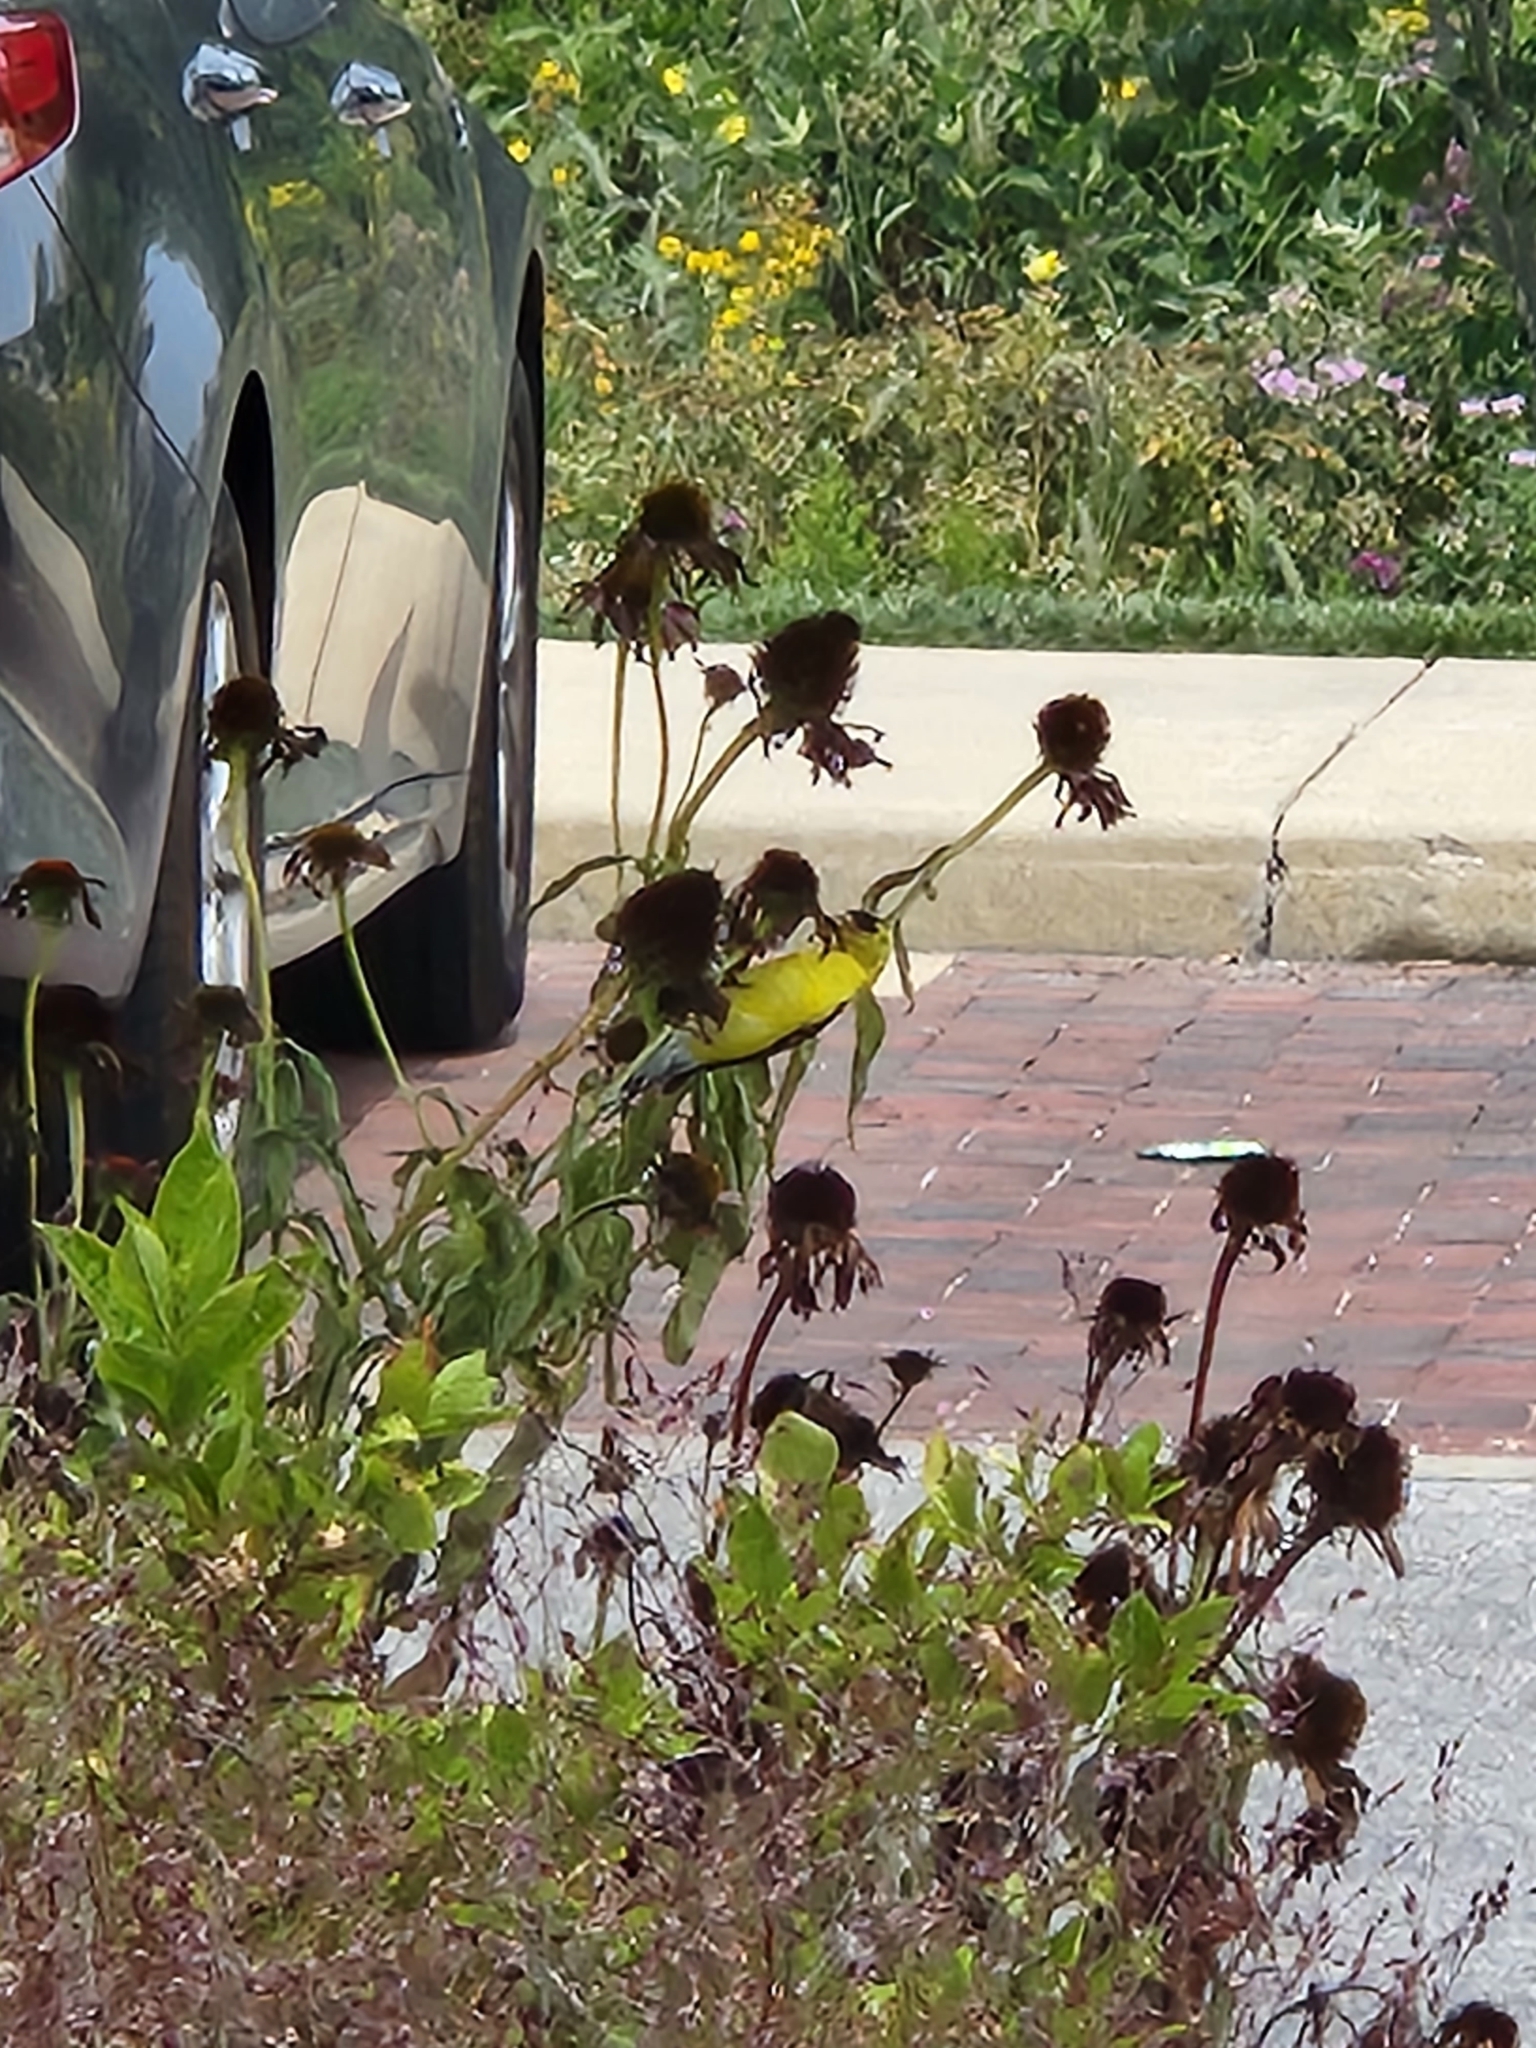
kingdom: Animalia
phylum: Chordata
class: Aves
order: Passeriformes
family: Fringillidae
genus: Spinus
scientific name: Spinus tristis
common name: American goldfinch
